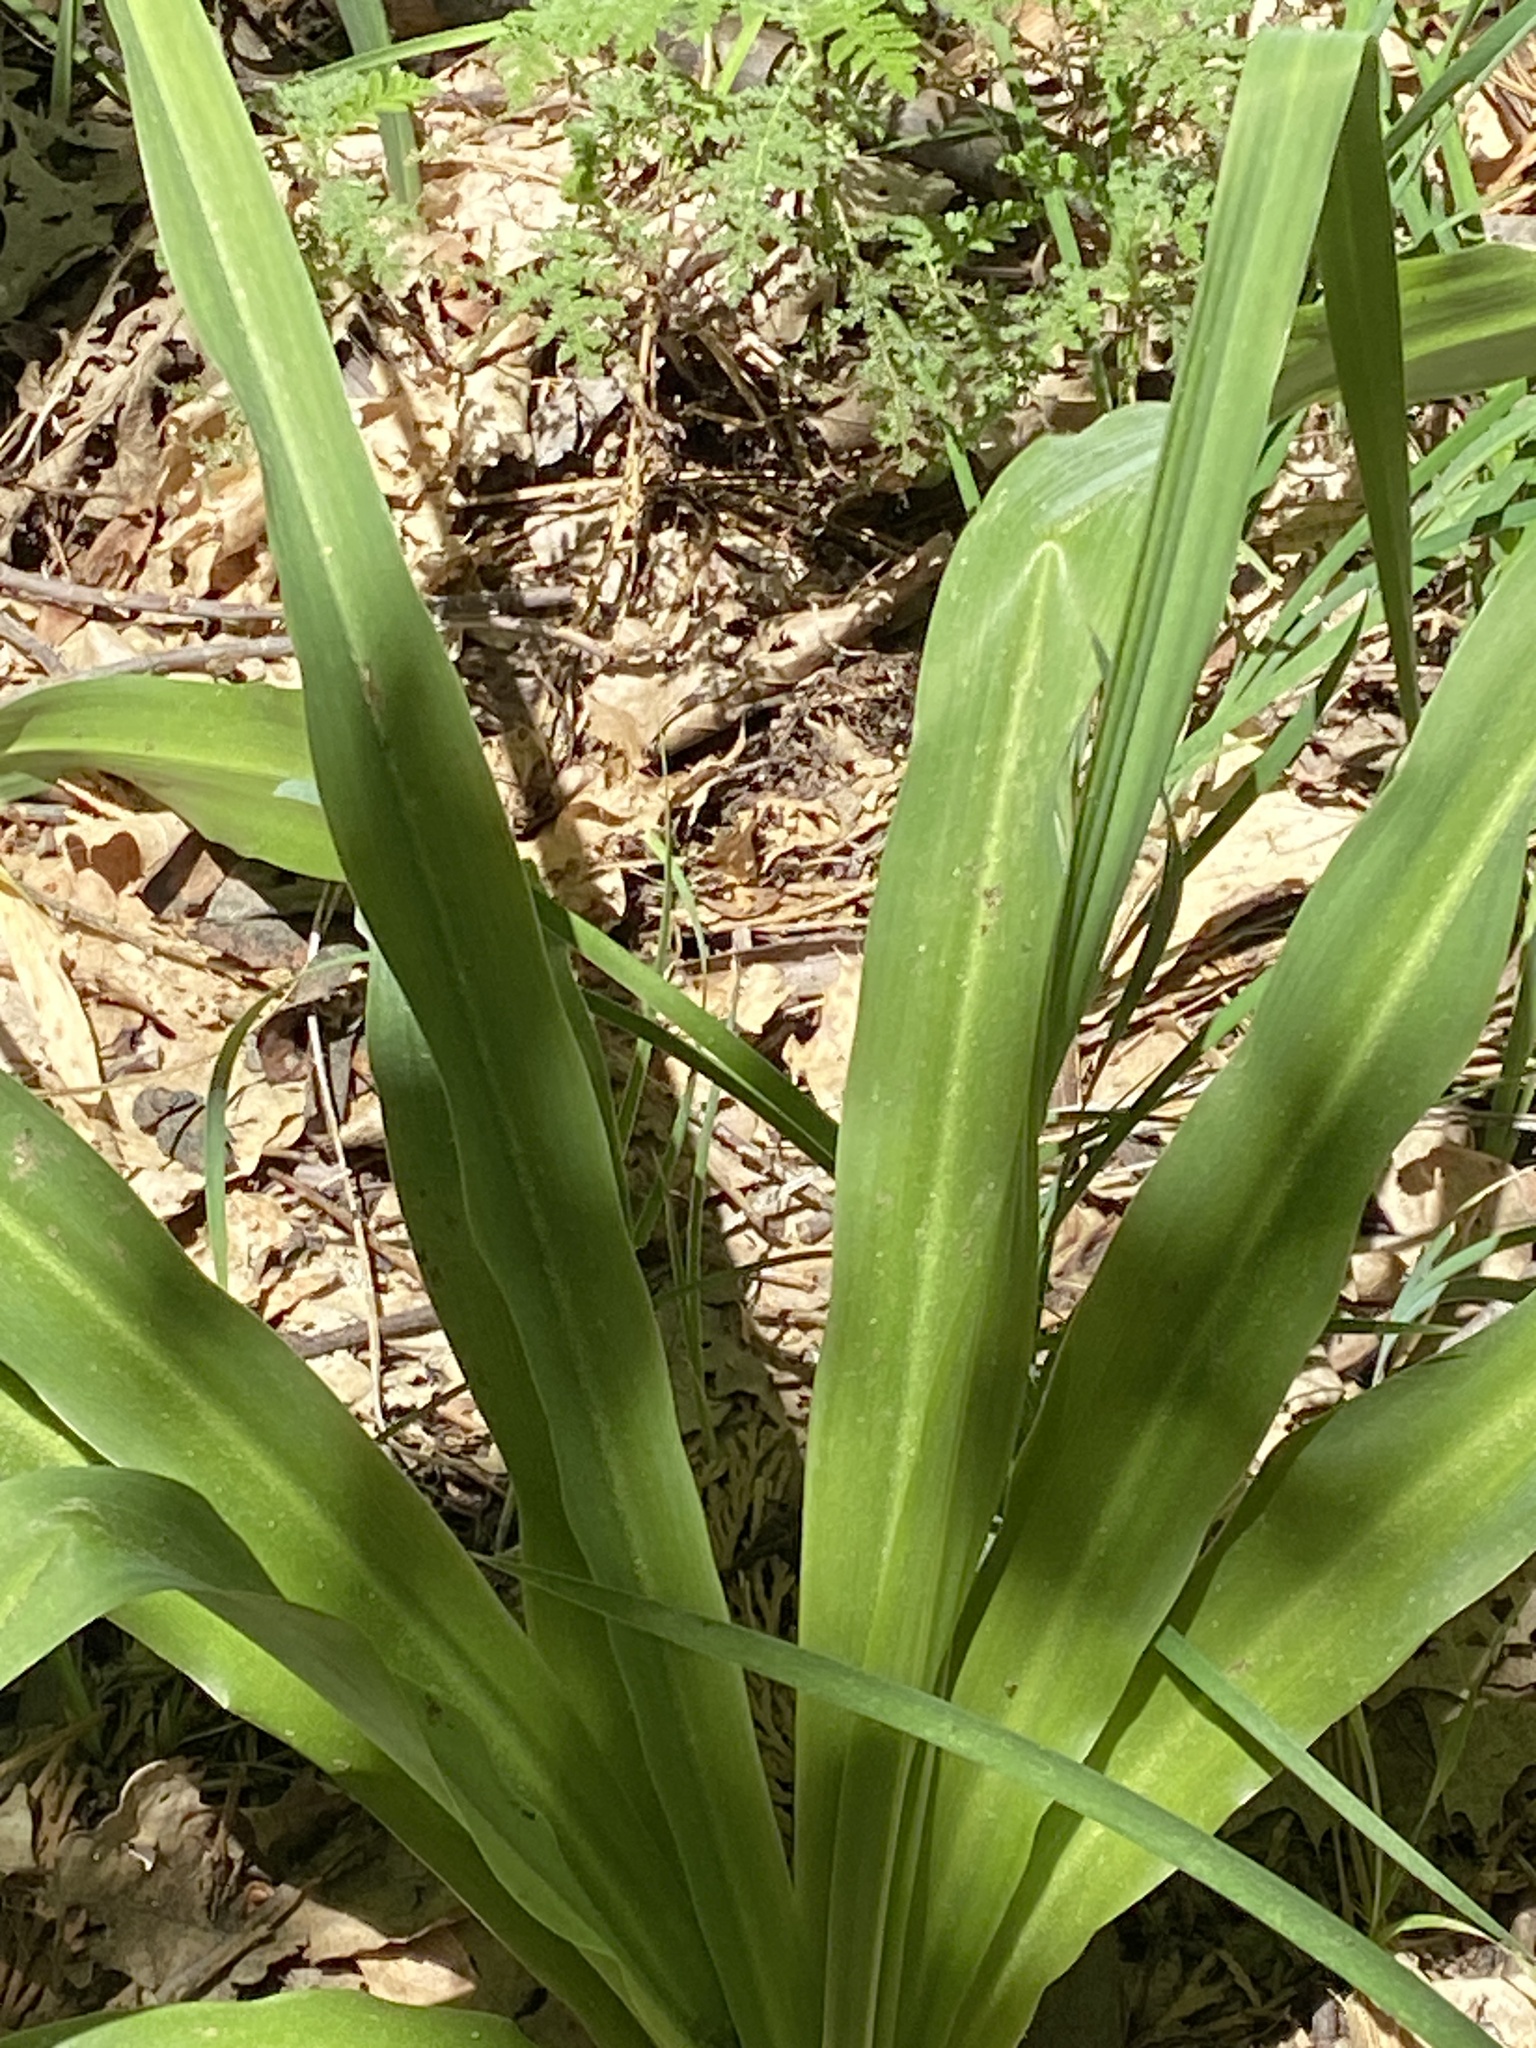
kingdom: Plantae
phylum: Tracheophyta
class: Liliopsida
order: Asparagales
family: Asparagaceae
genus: Chlorogalum
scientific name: Chlorogalum pomeridianum
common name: Amole
